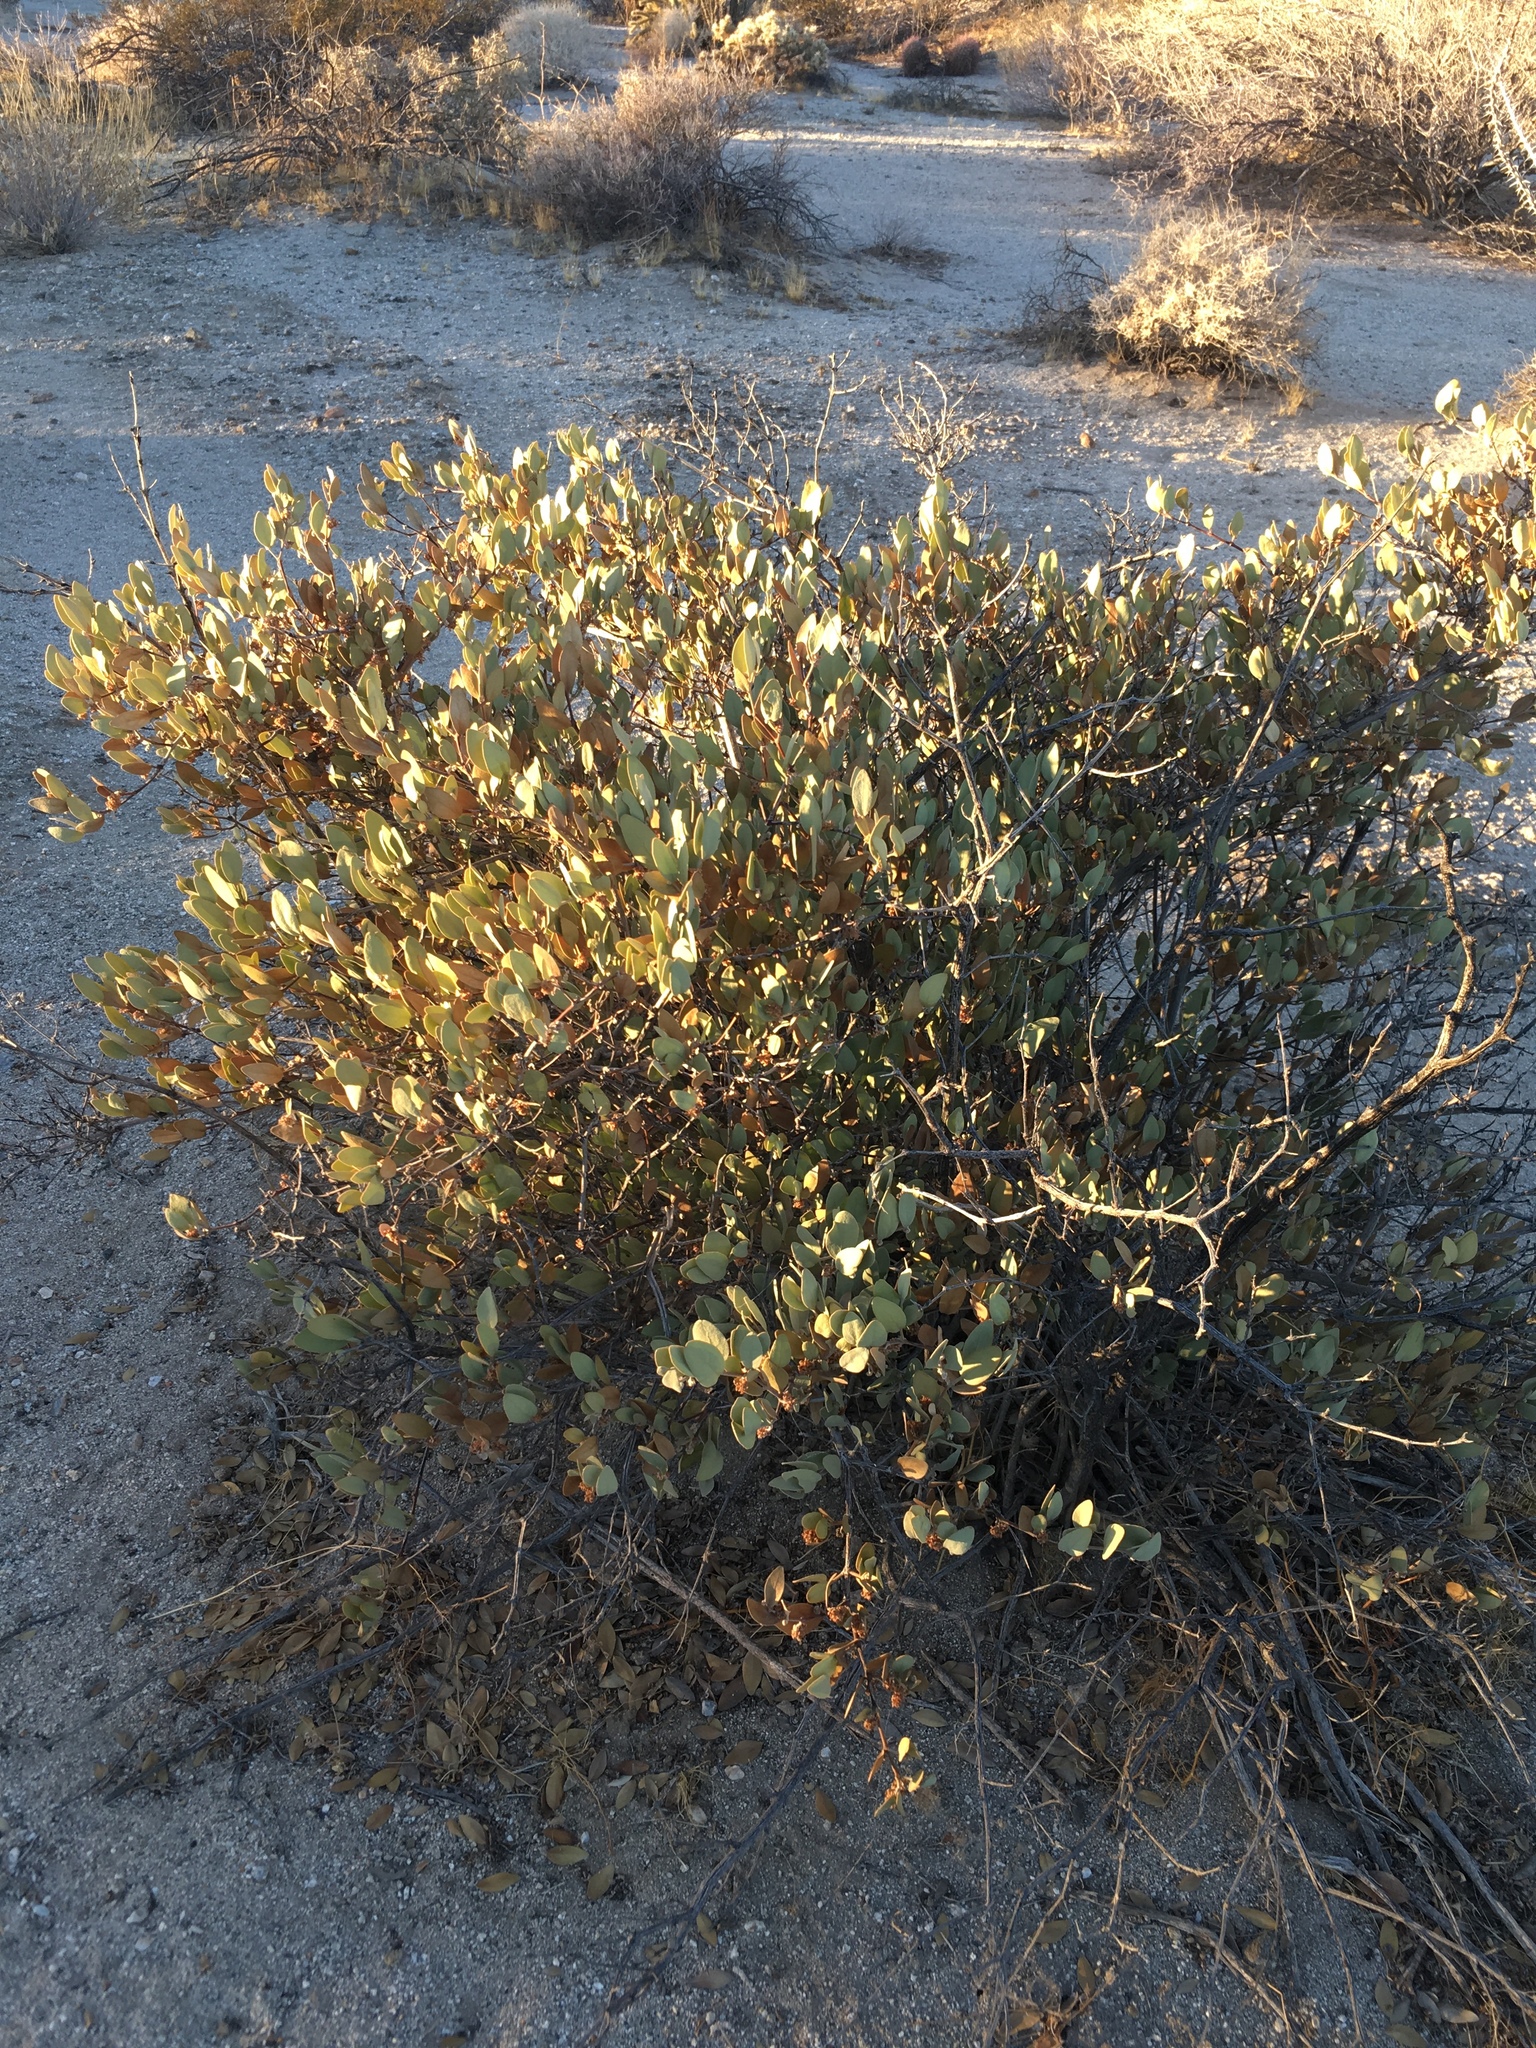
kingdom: Plantae
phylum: Tracheophyta
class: Magnoliopsida
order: Caryophyllales
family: Simmondsiaceae
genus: Simmondsia
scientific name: Simmondsia chinensis
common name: Jojoba
